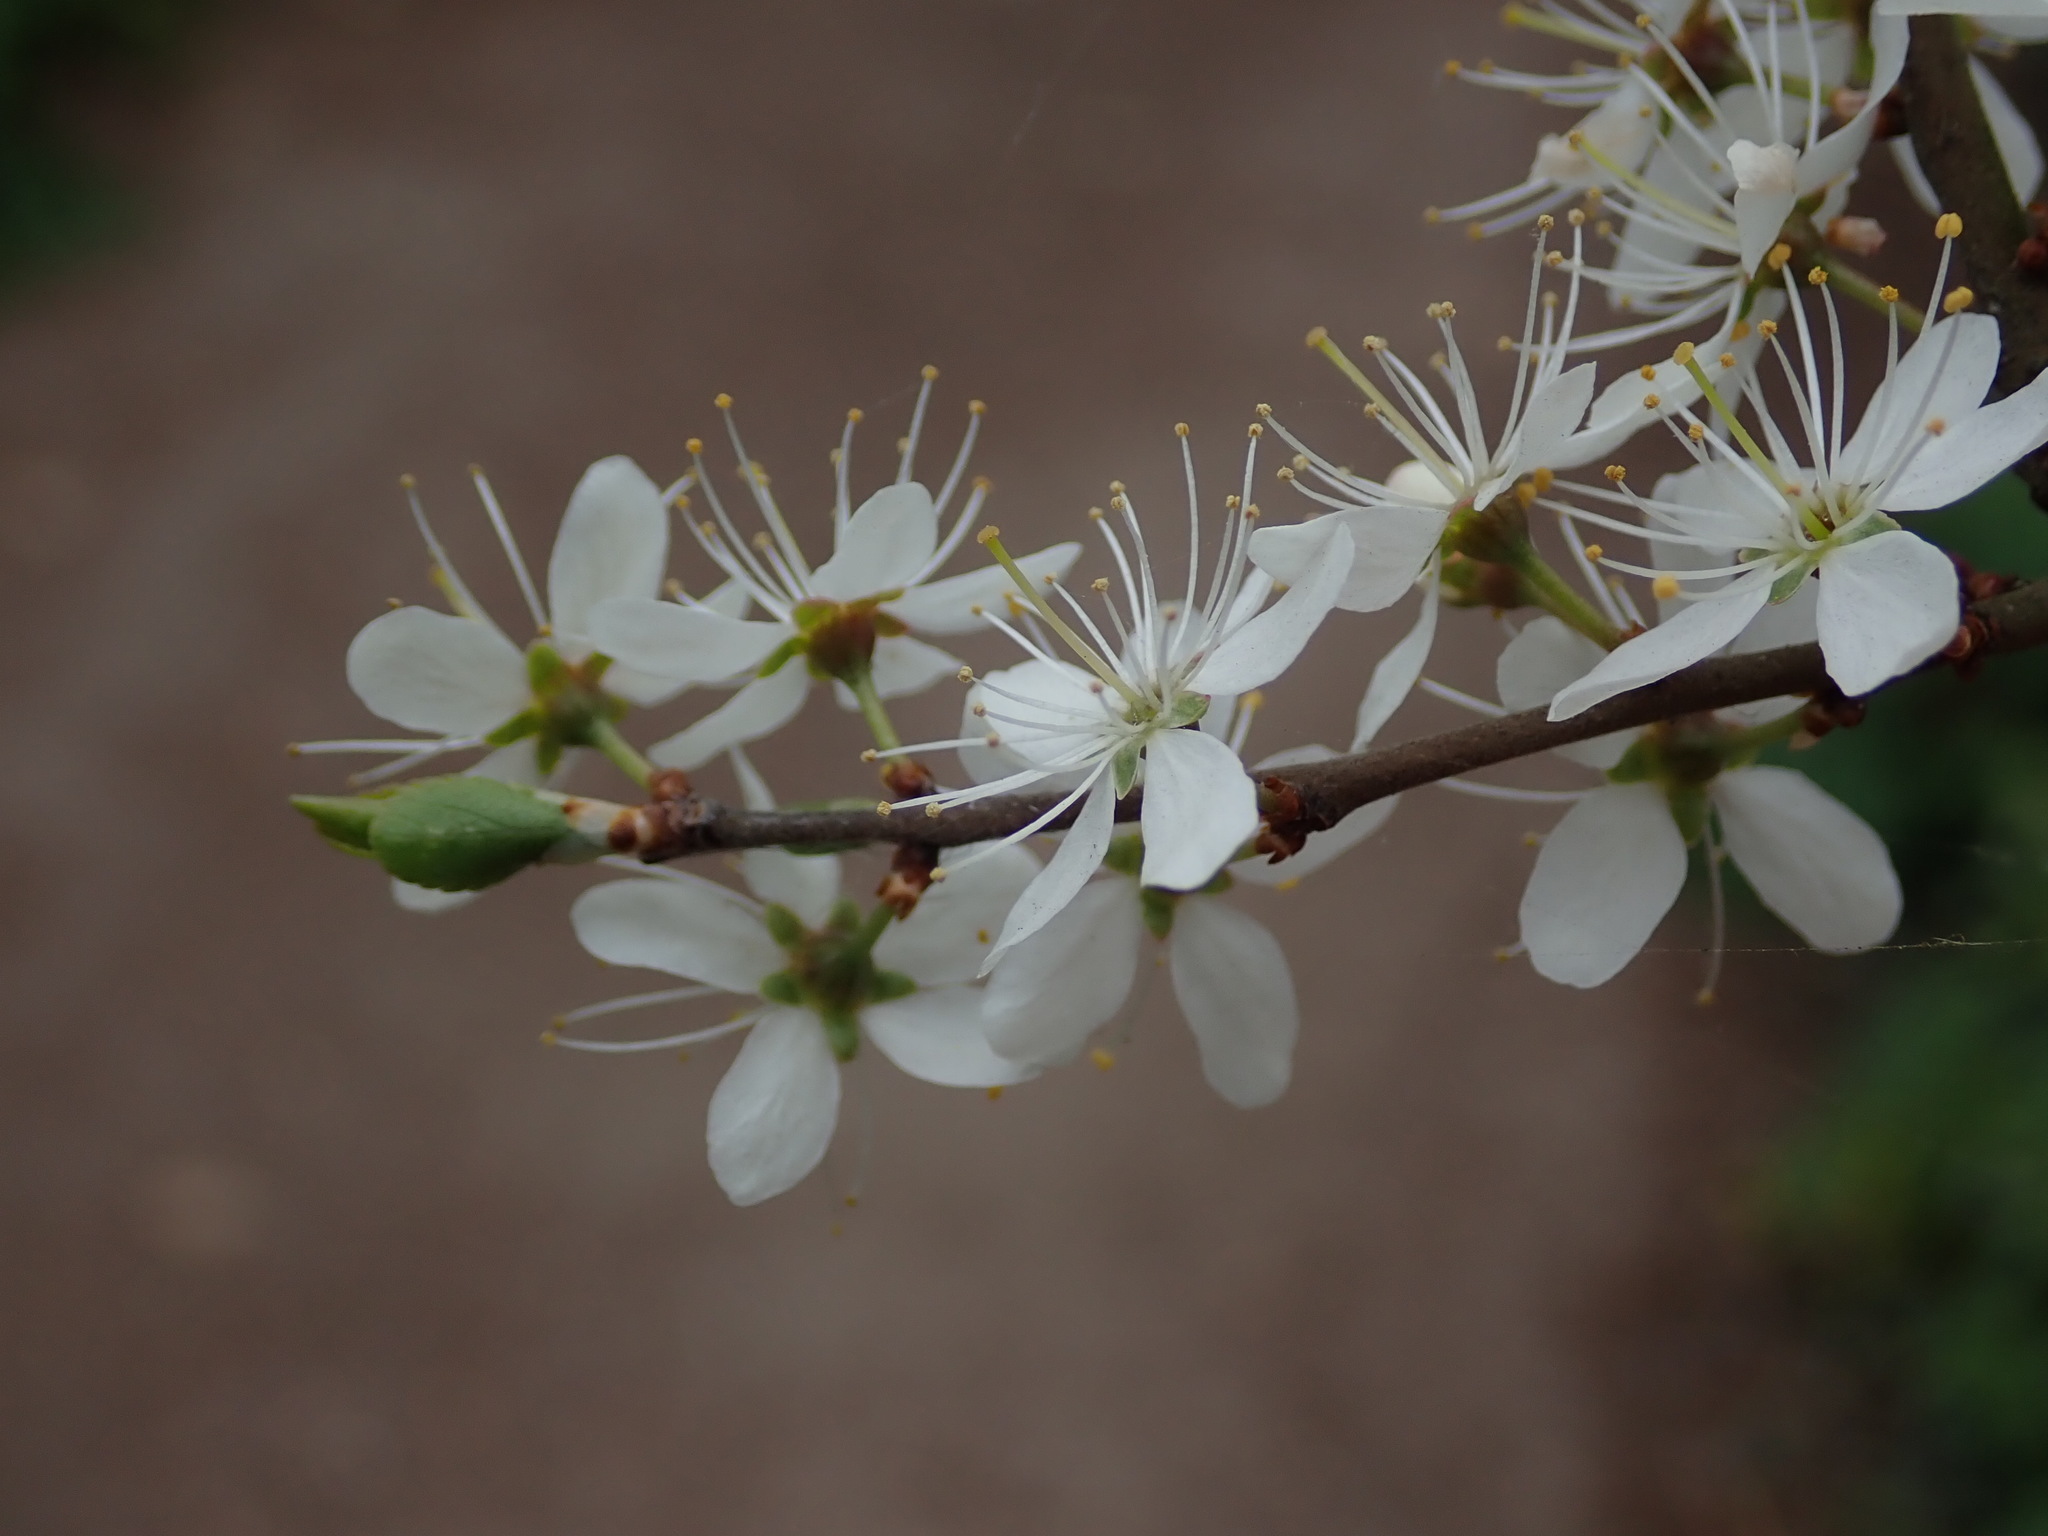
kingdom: Plantae
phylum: Tracheophyta
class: Magnoliopsida
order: Rosales
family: Rosaceae
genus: Prunus
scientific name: Prunus spinosa
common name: Blackthorn
